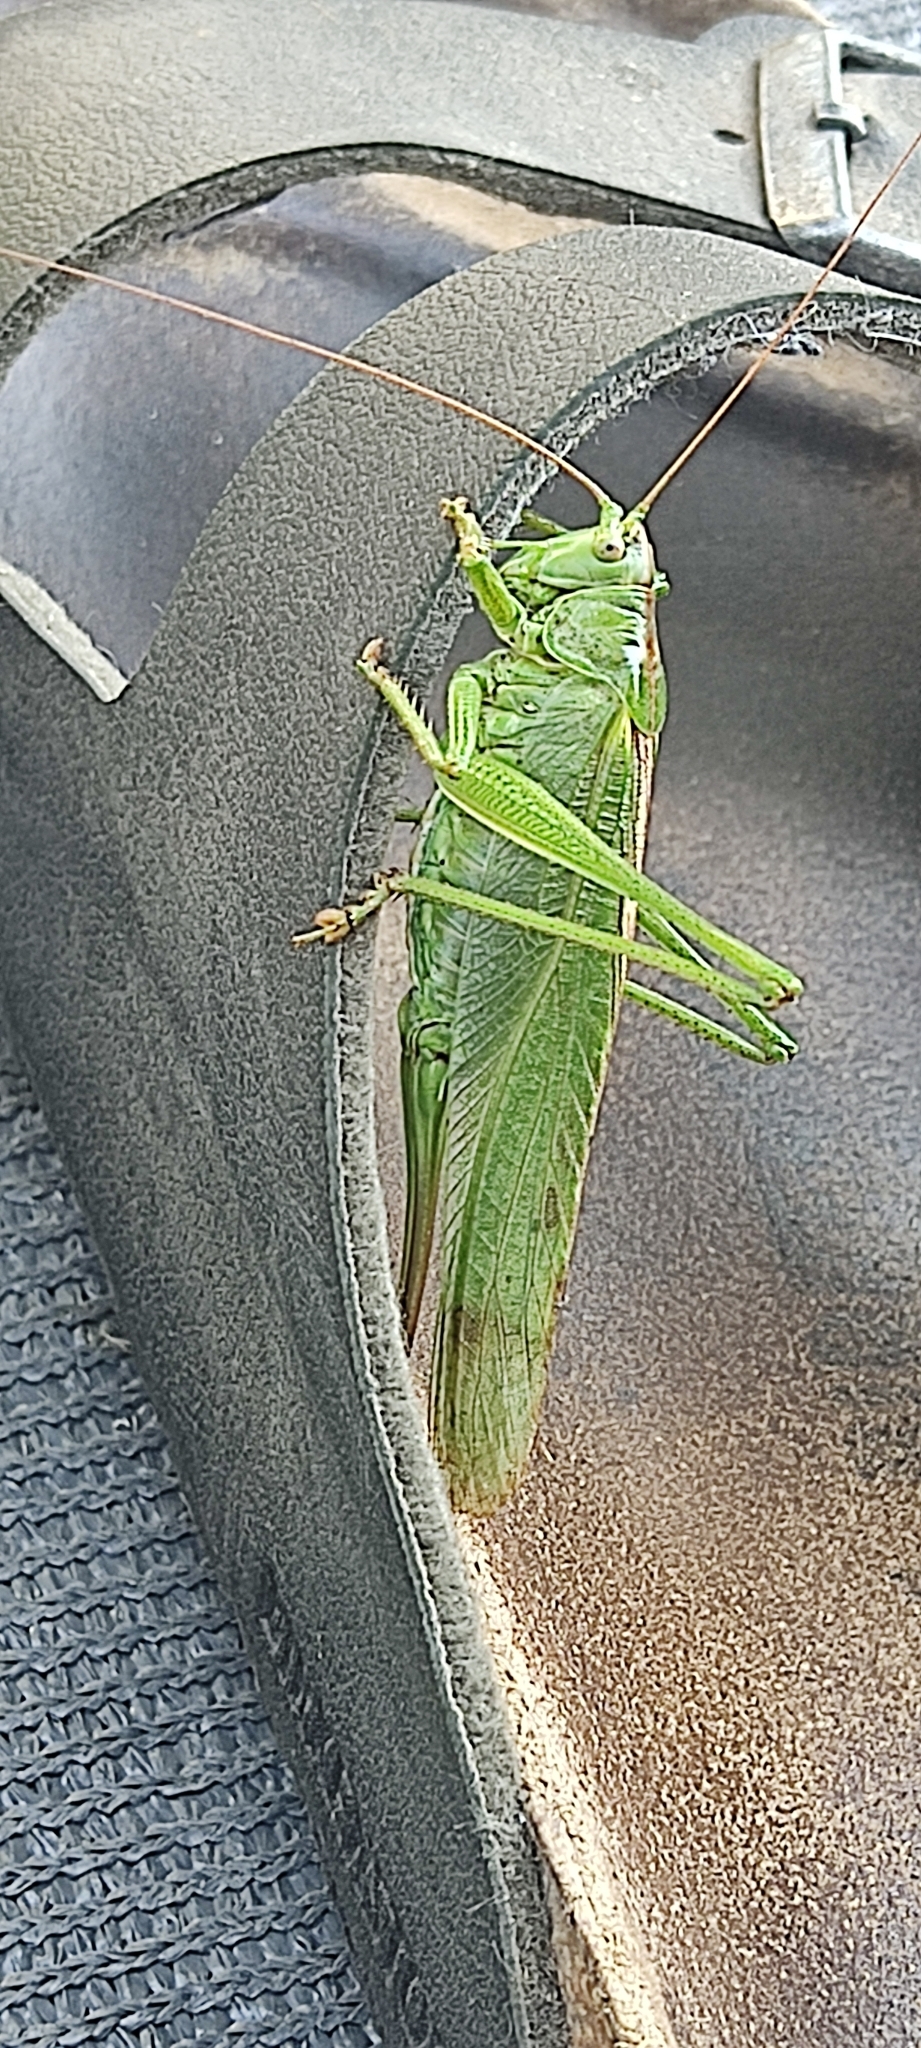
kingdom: Animalia
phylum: Arthropoda
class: Insecta
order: Orthoptera
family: Tettigoniidae
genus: Tettigonia
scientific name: Tettigonia viridissima
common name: Great green bush-cricket
